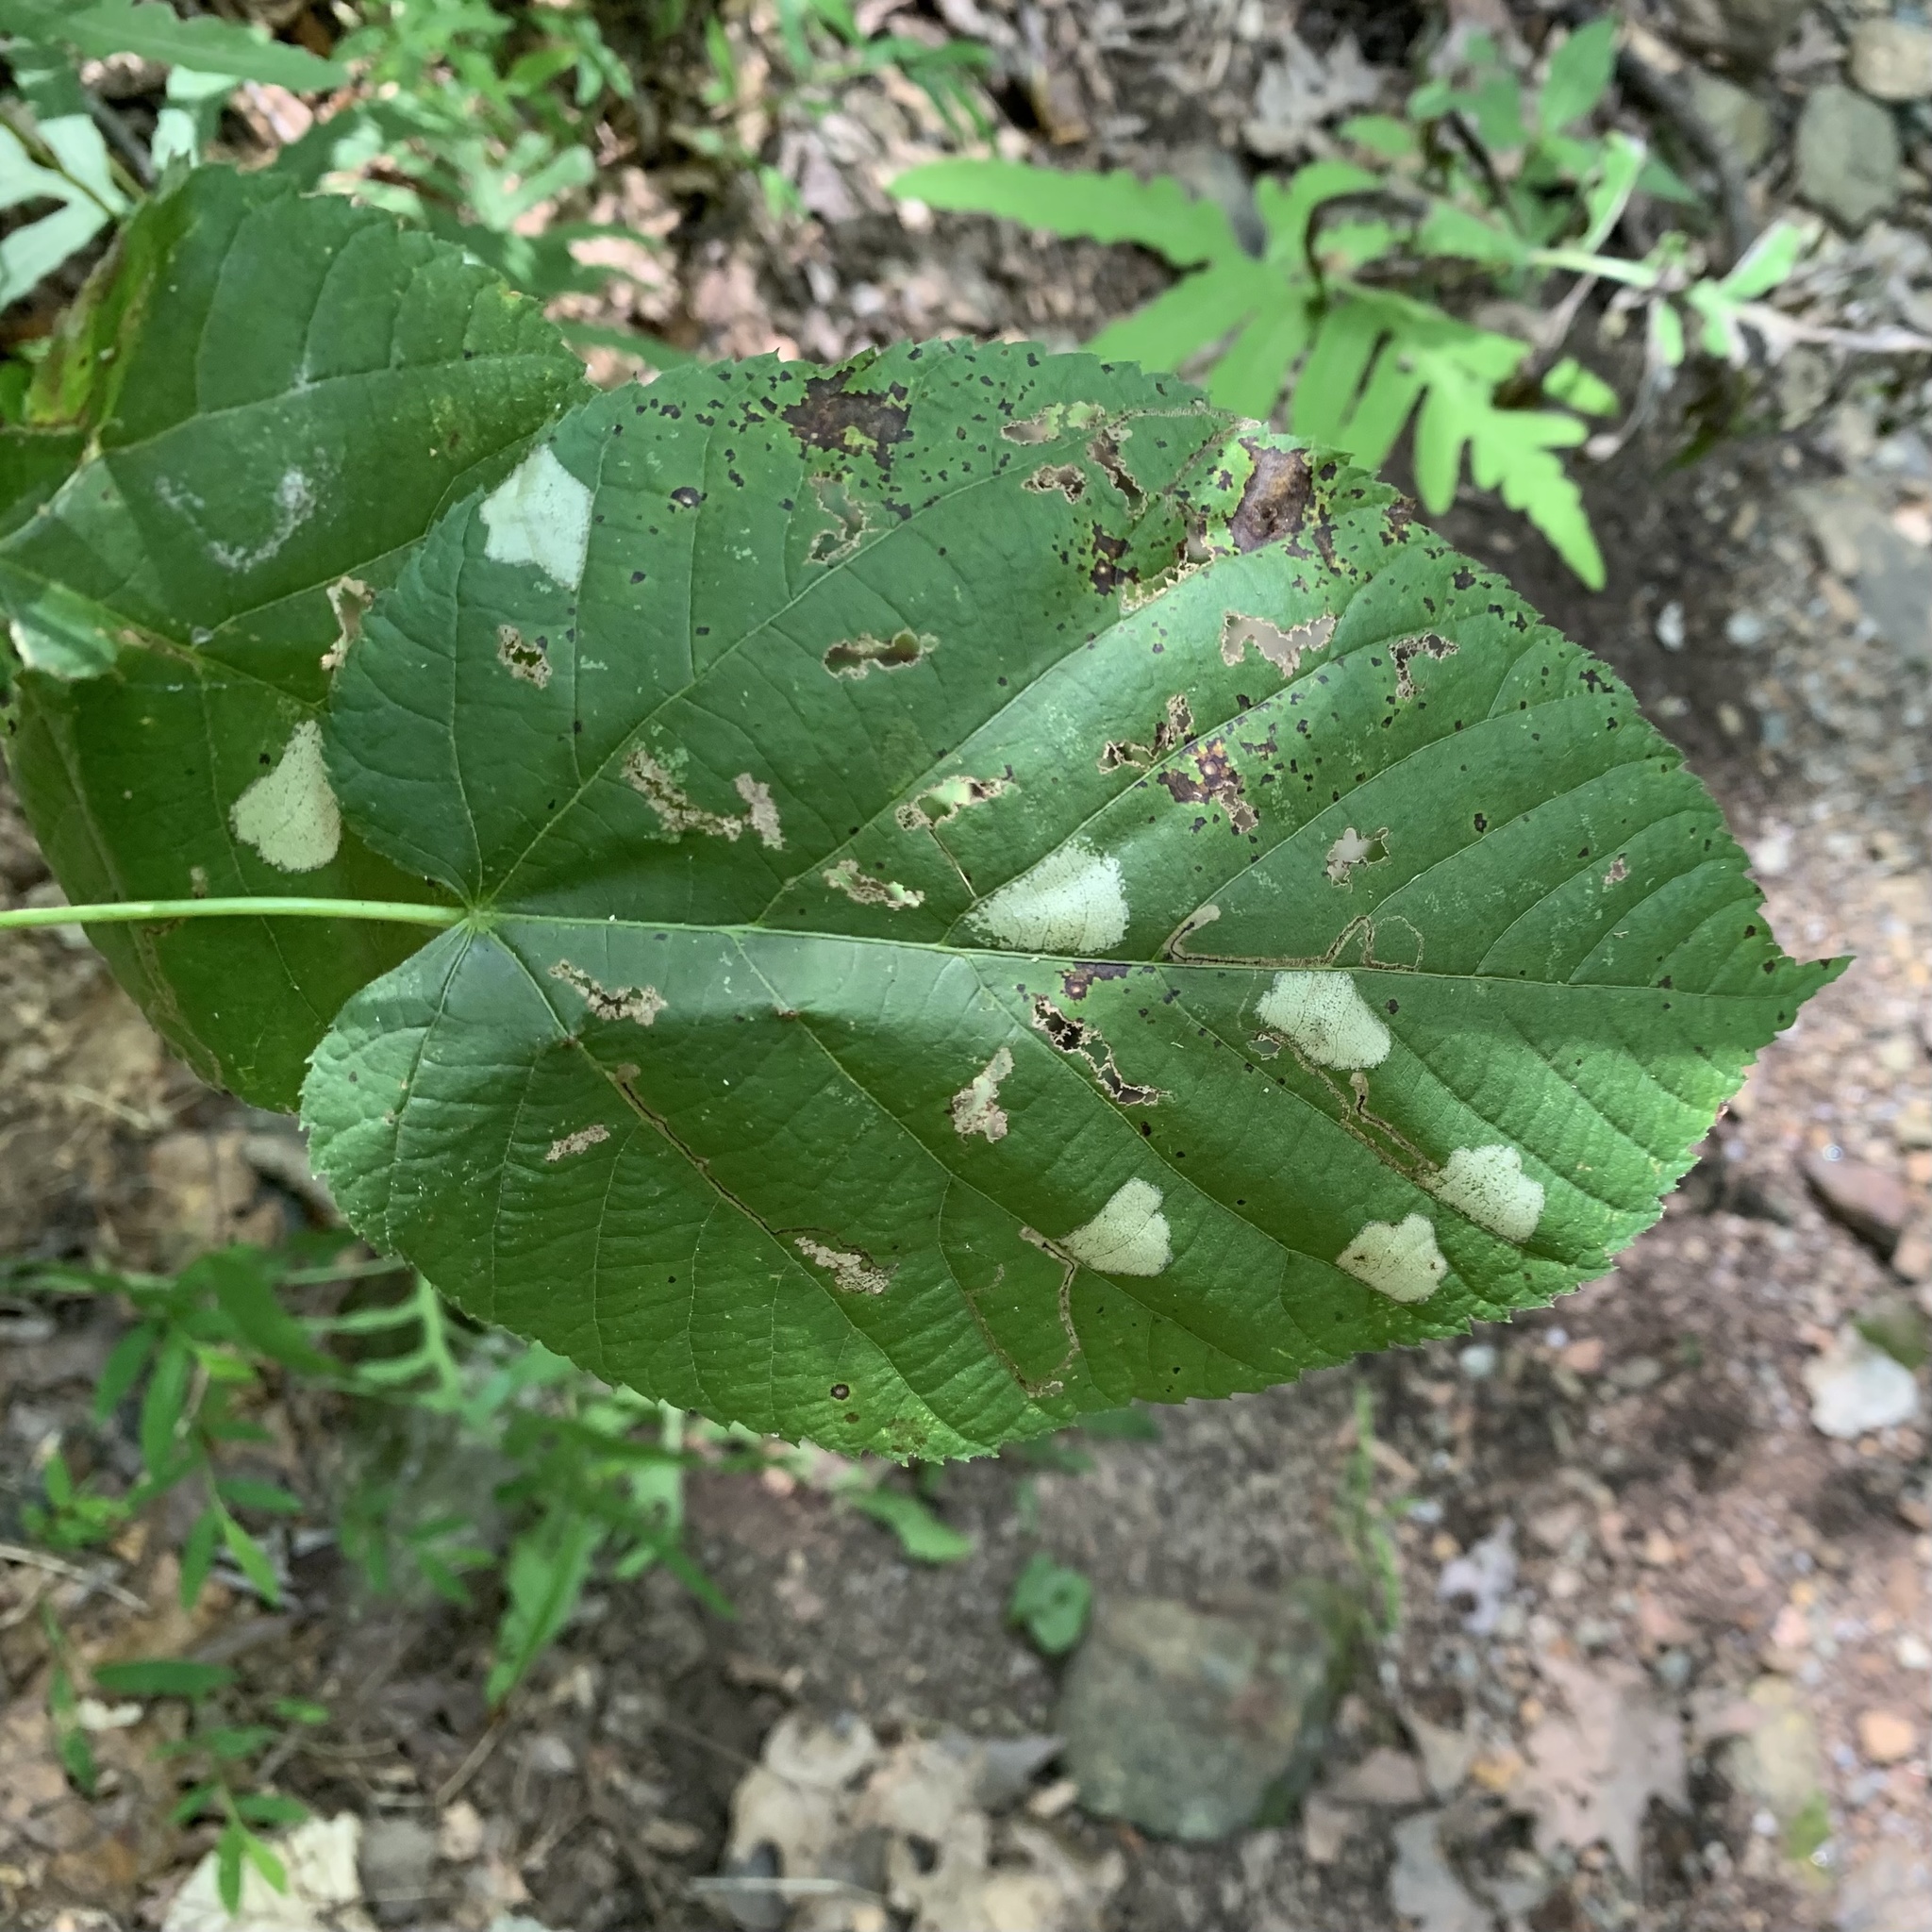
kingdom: Animalia
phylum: Arthropoda
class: Insecta
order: Lepidoptera
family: Gracillariidae
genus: Phyllonorycter
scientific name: Phyllonorycter lucetiella
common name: Basswood miner moth
